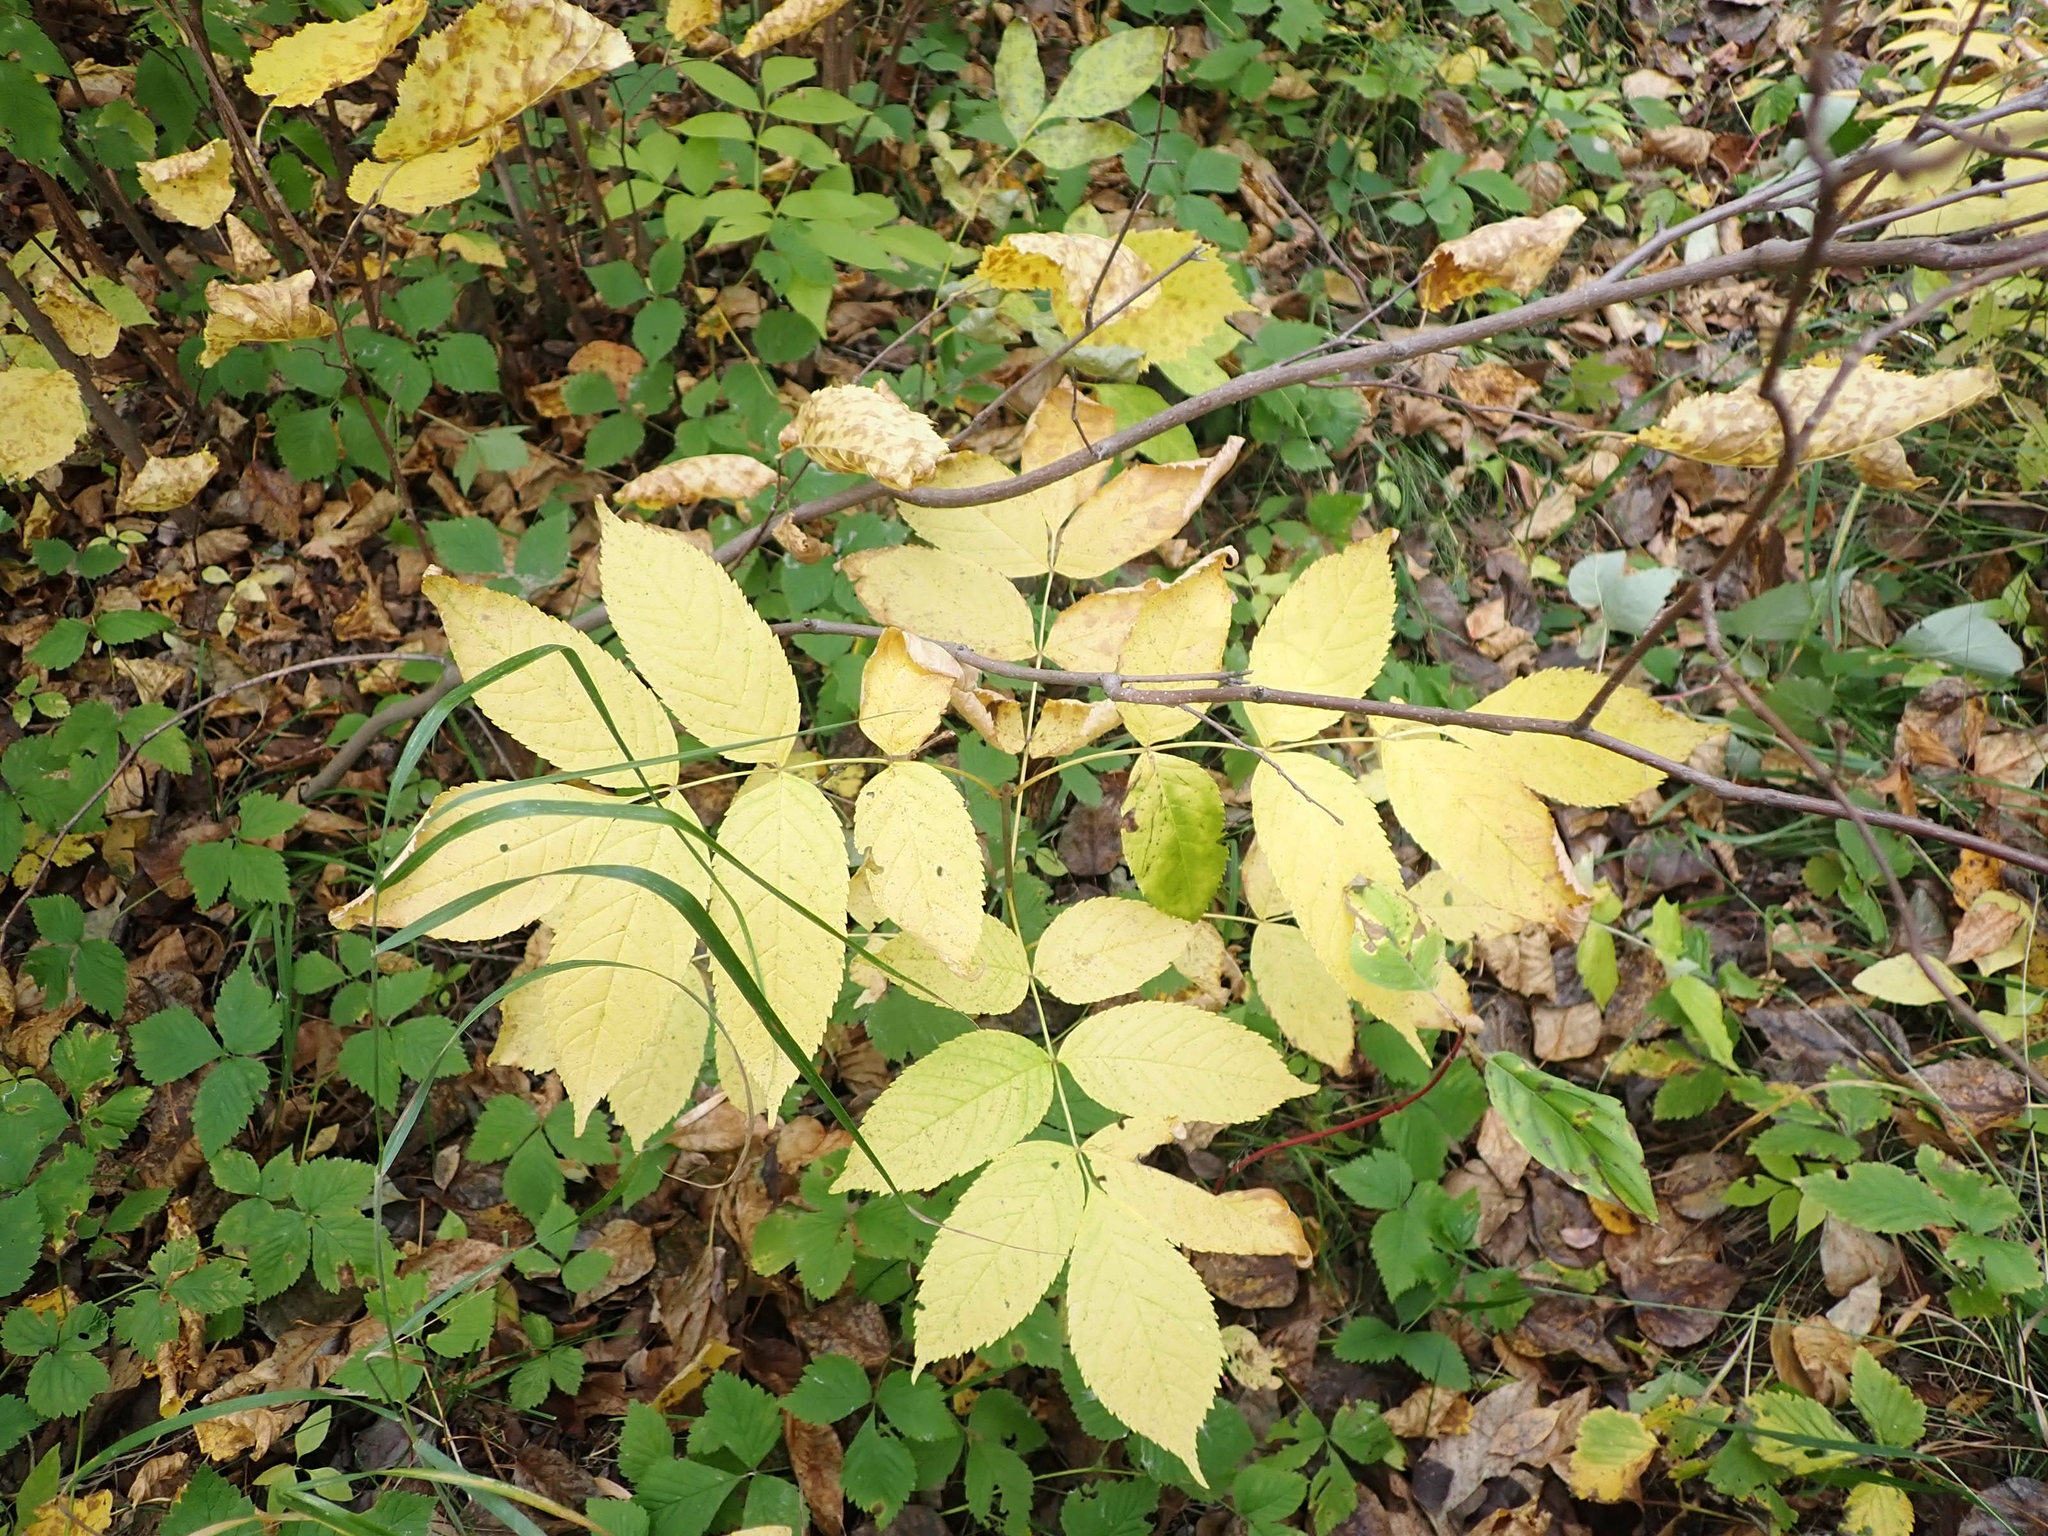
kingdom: Plantae
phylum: Tracheophyta
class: Magnoliopsida
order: Lamiales
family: Oleaceae
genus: Fraxinus
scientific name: Fraxinus pennsylvanica
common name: Green ash
